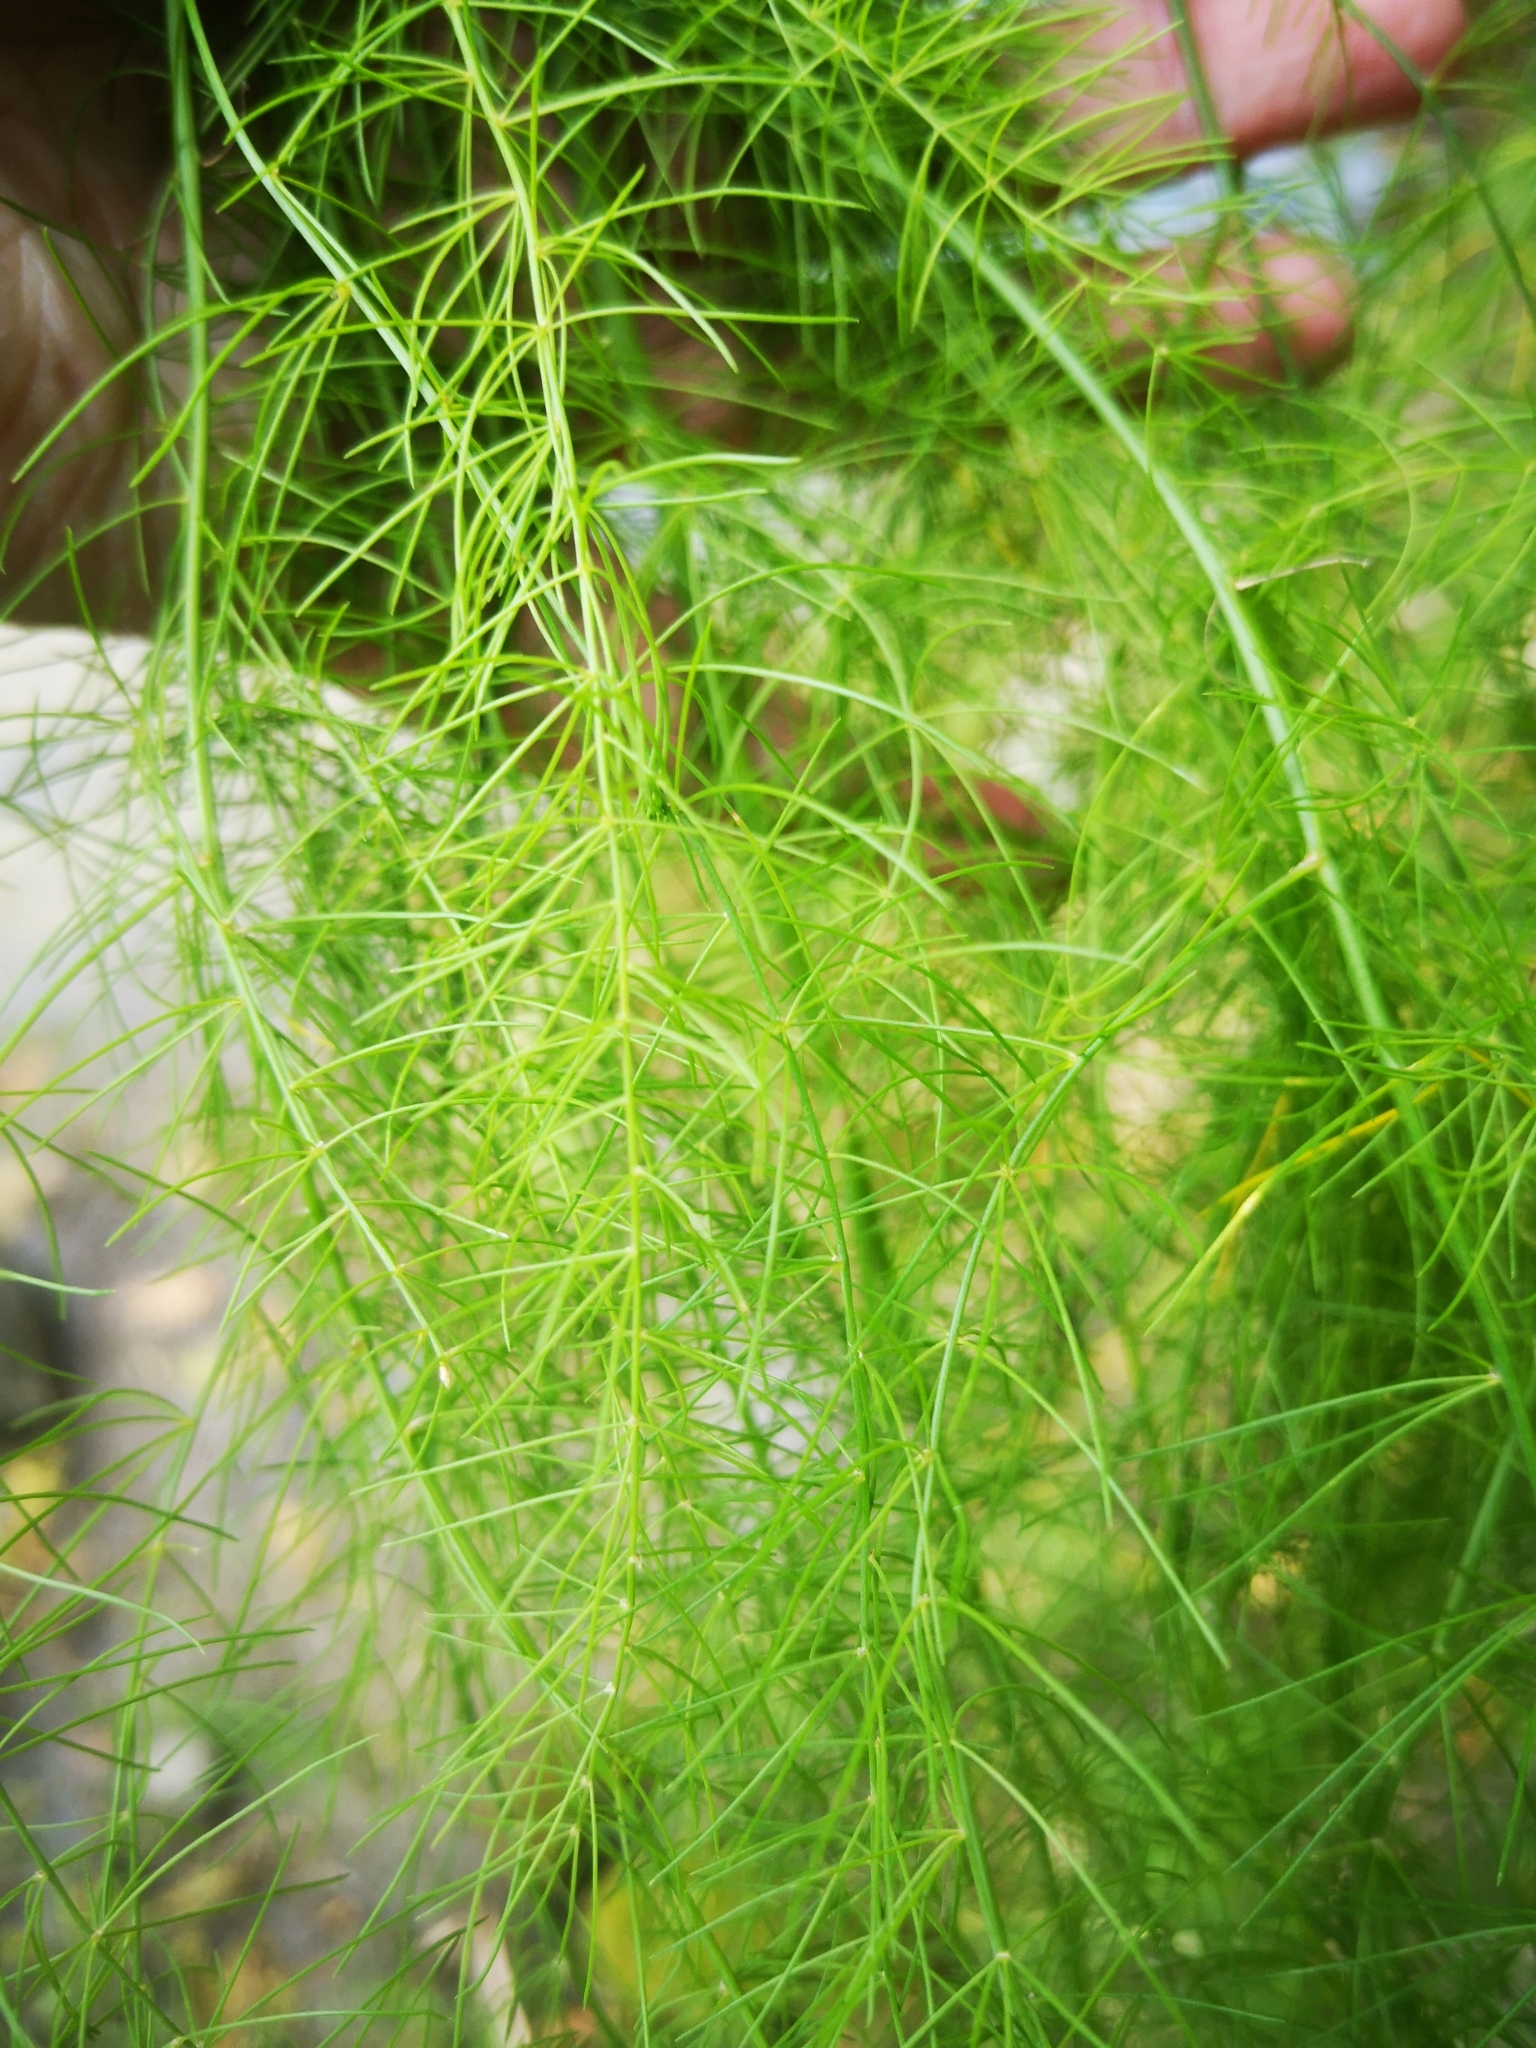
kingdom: Plantae
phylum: Tracheophyta
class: Liliopsida
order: Asparagales
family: Asparagaceae
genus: Asparagus
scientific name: Asparagus officinalis
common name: Garden asparagus
